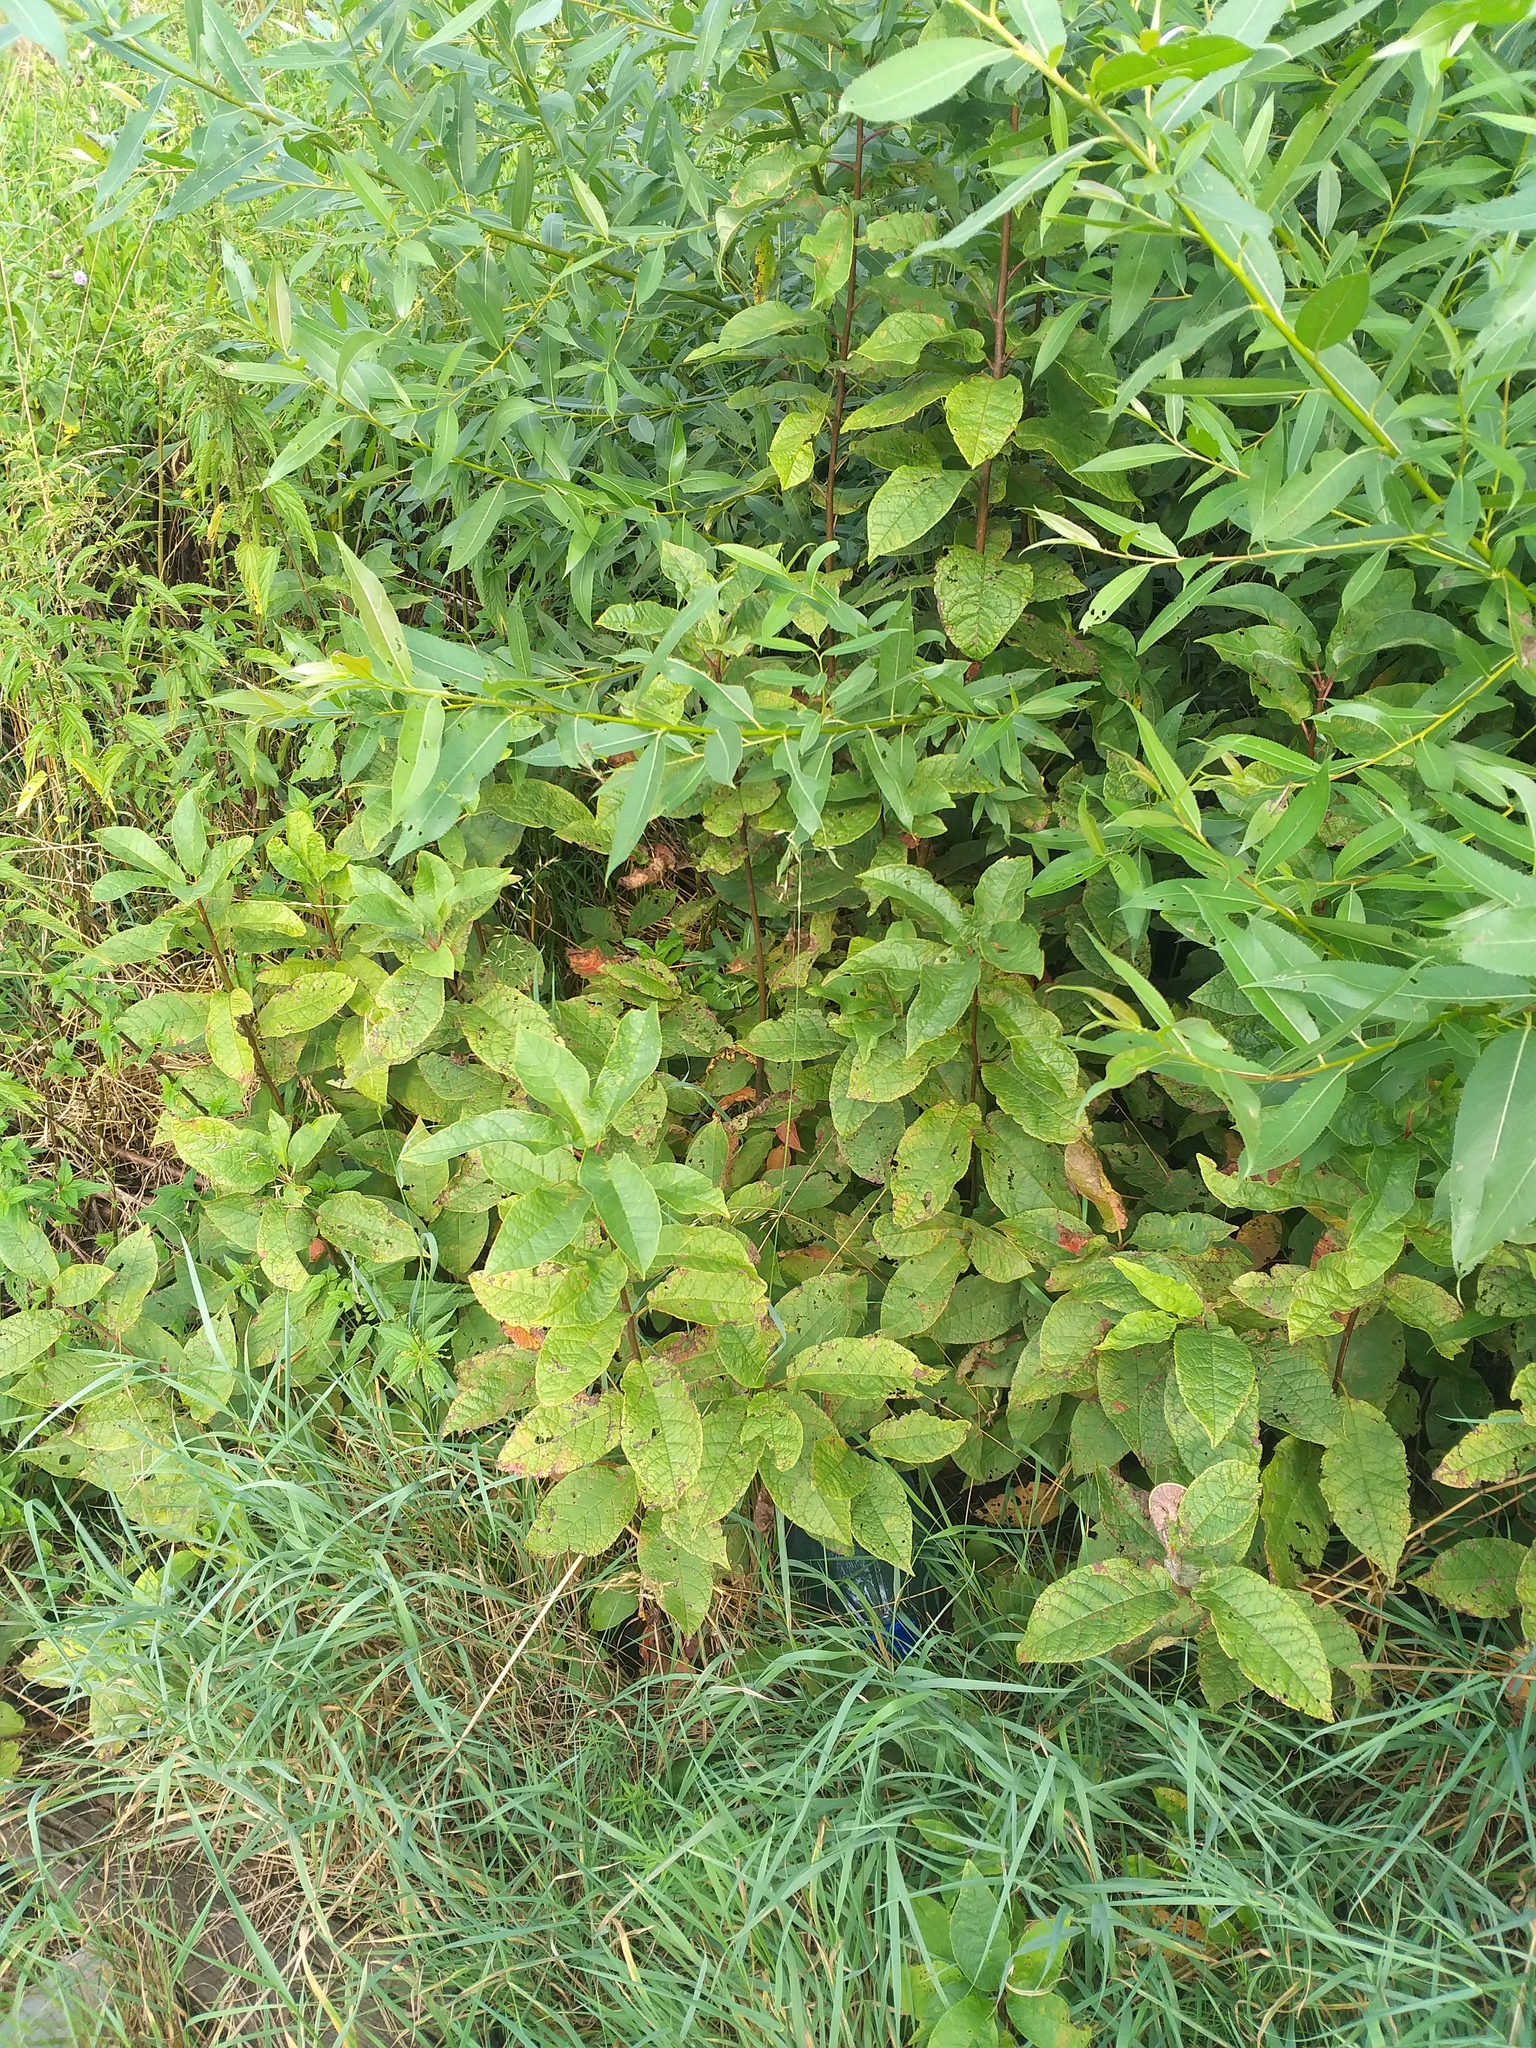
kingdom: Plantae
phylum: Tracheophyta
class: Magnoliopsida
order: Rosales
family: Rosaceae
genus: Prunus
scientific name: Prunus padus
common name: Bird cherry
